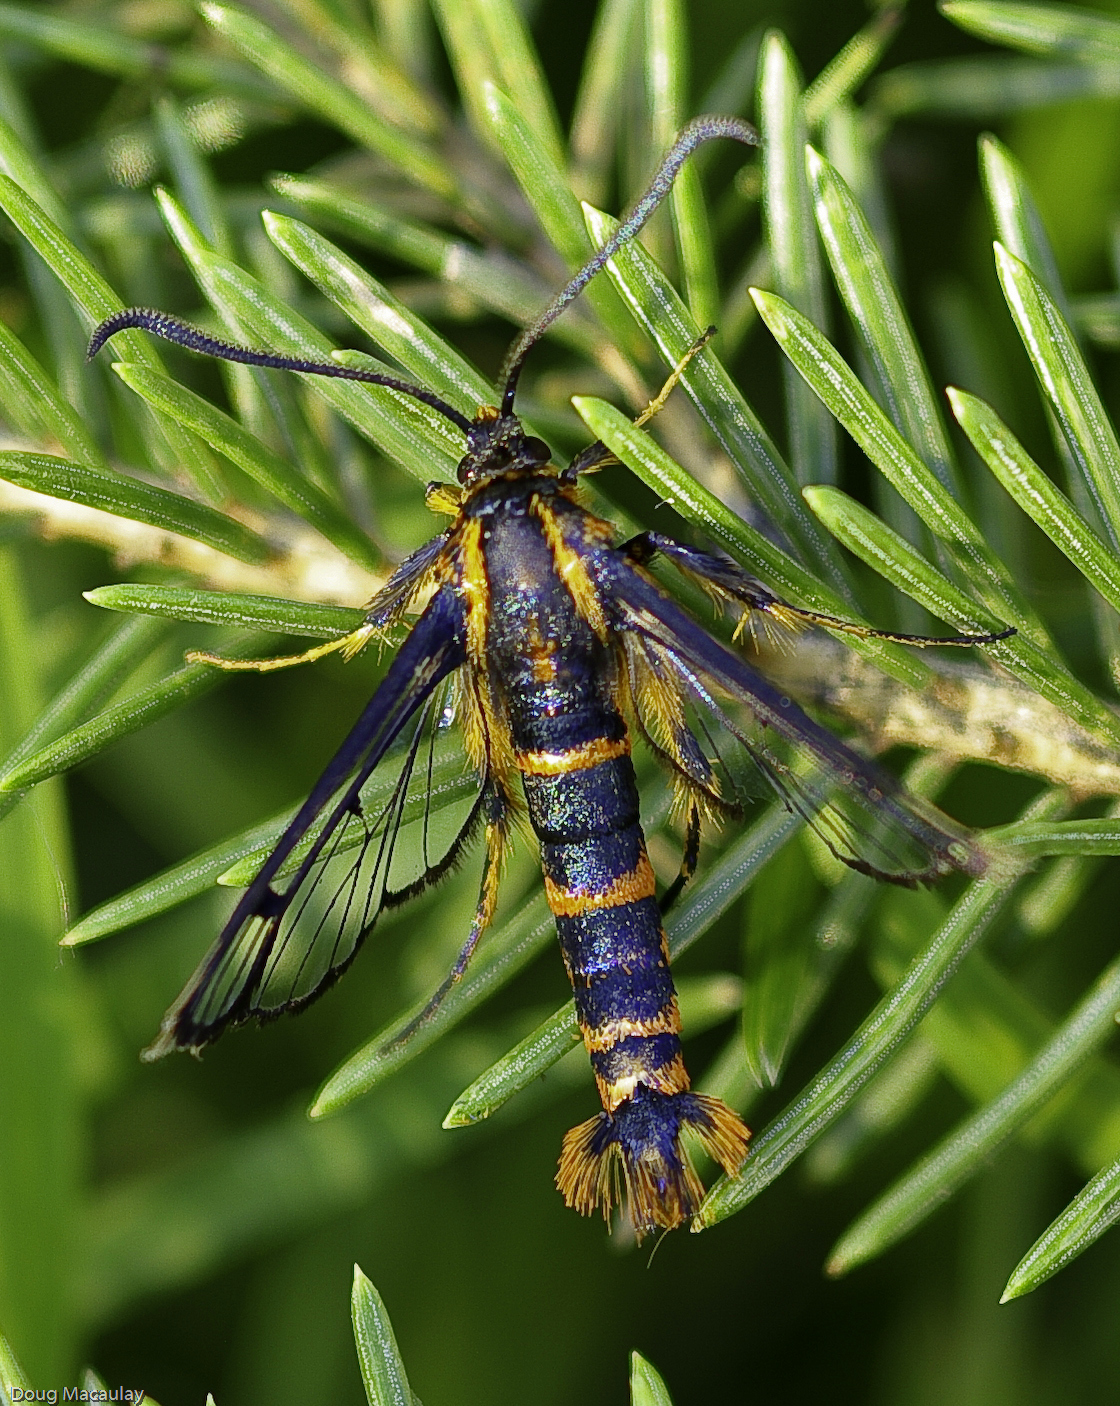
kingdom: Animalia
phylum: Arthropoda
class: Insecta
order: Lepidoptera
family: Sesiidae
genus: Synanthedon
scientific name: Synanthedon novaroensis
